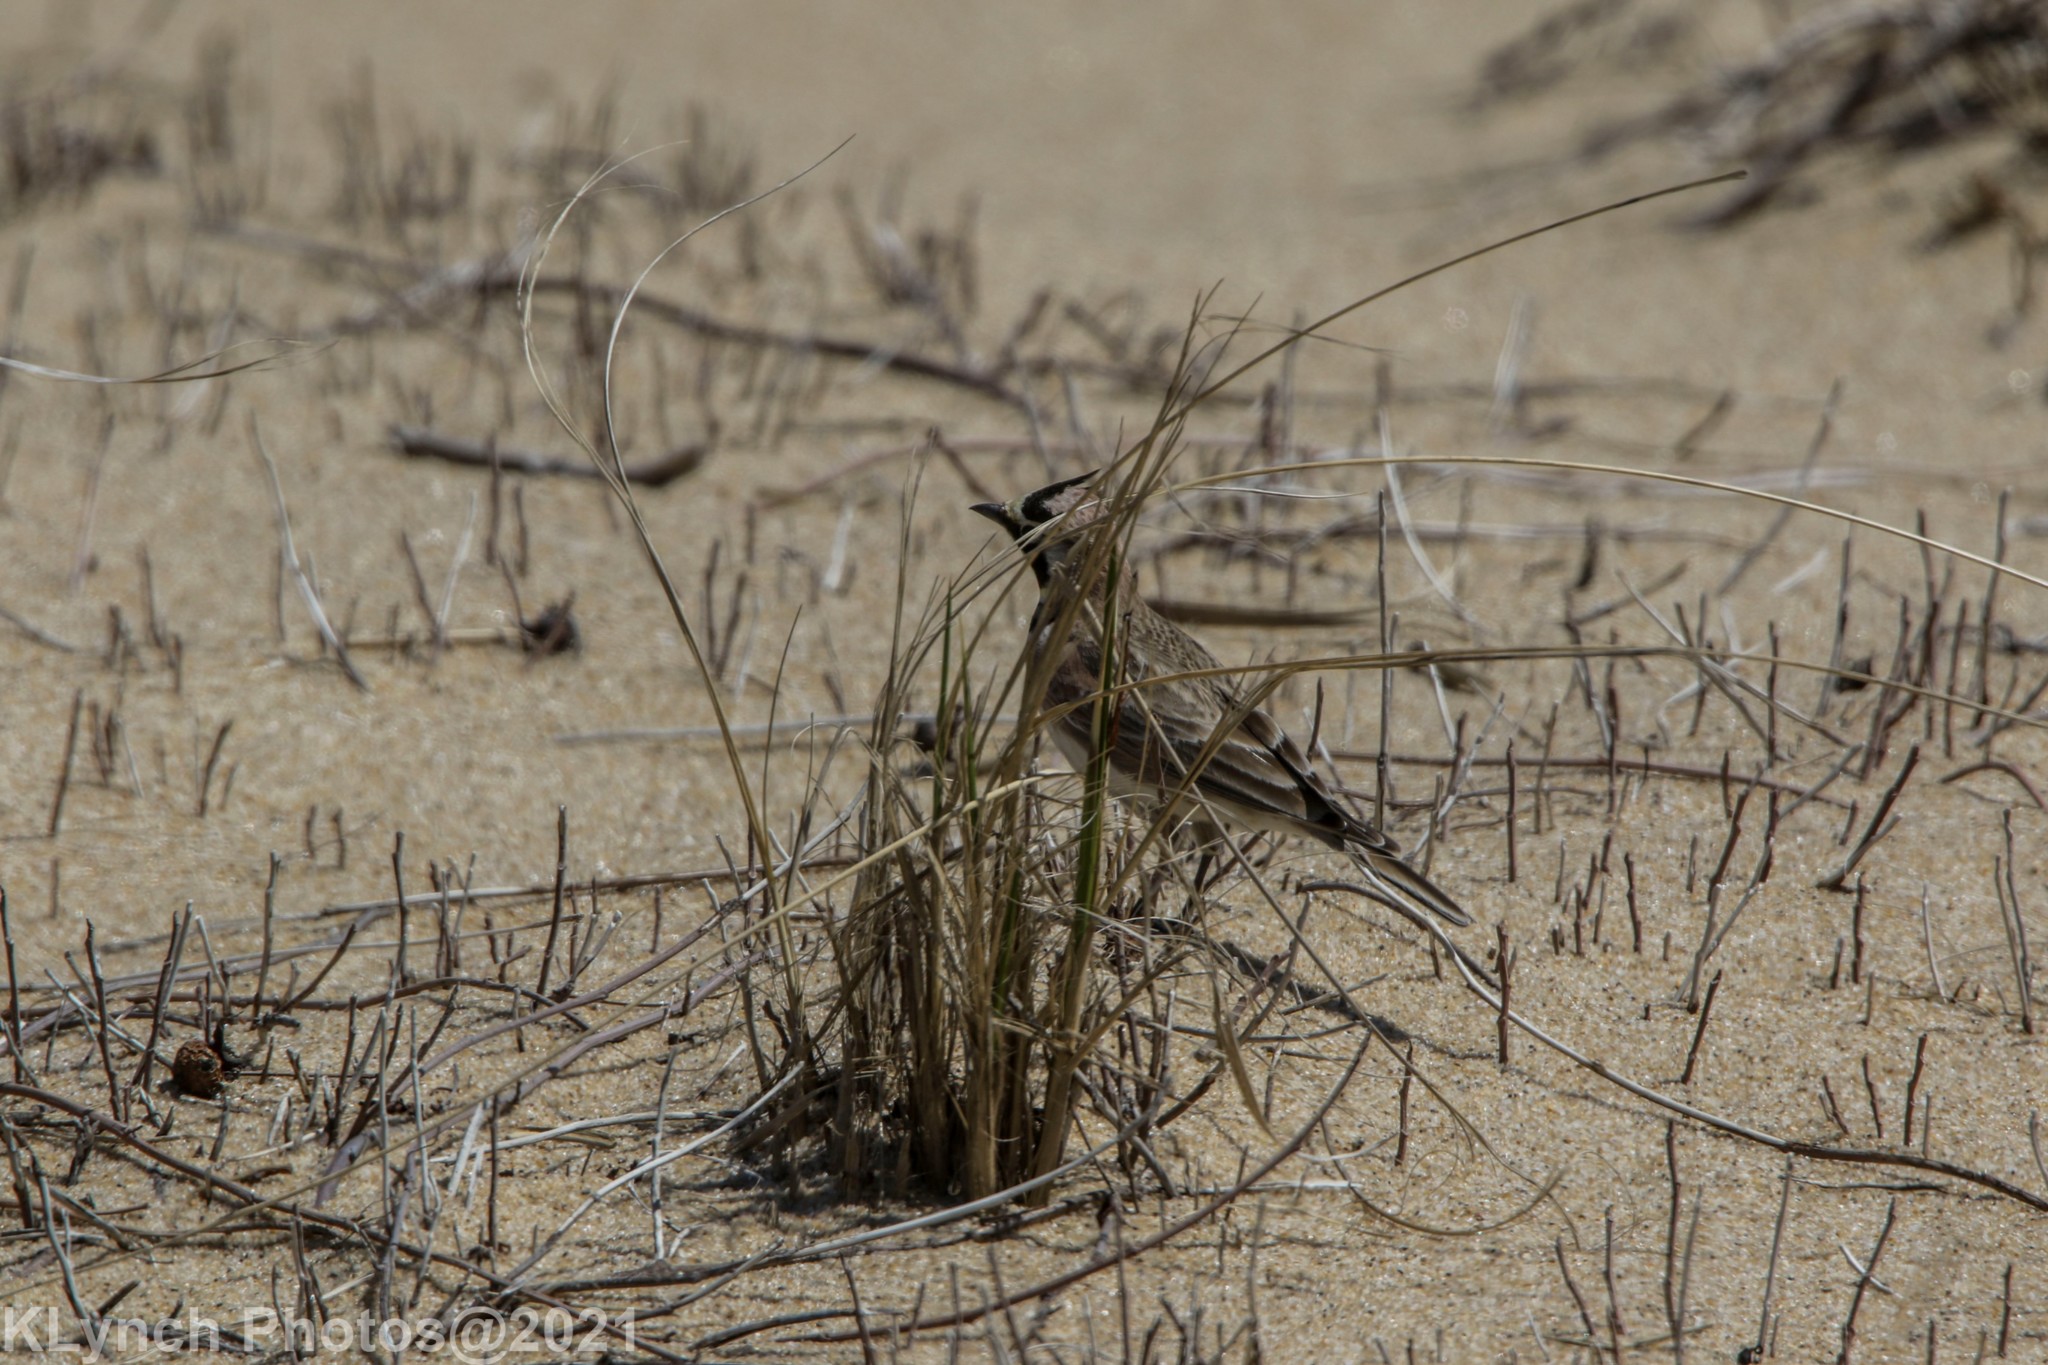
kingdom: Animalia
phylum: Chordata
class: Aves
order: Passeriformes
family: Alaudidae
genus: Eremophila
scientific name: Eremophila alpestris
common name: Horned lark
